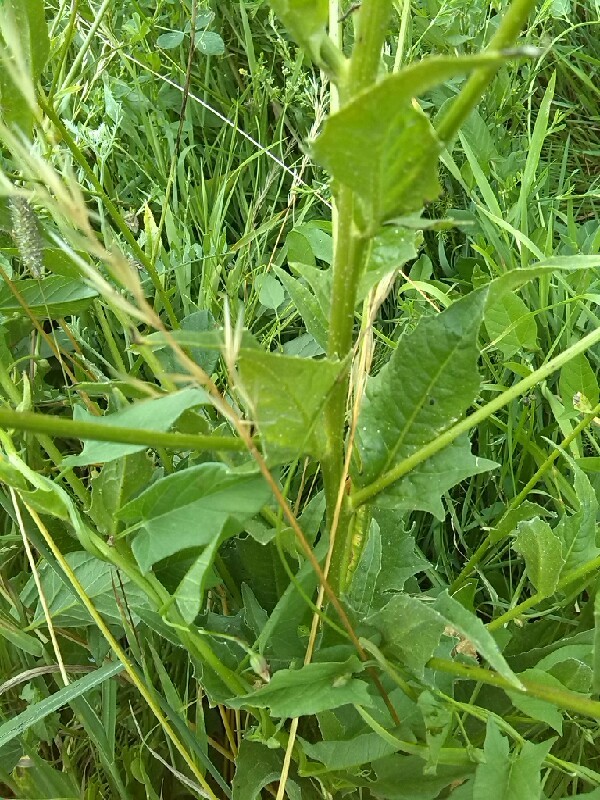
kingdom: Plantae
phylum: Tracheophyta
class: Magnoliopsida
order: Brassicales
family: Brassicaceae
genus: Bunias
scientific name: Bunias orientalis
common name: Warty-cabbage
